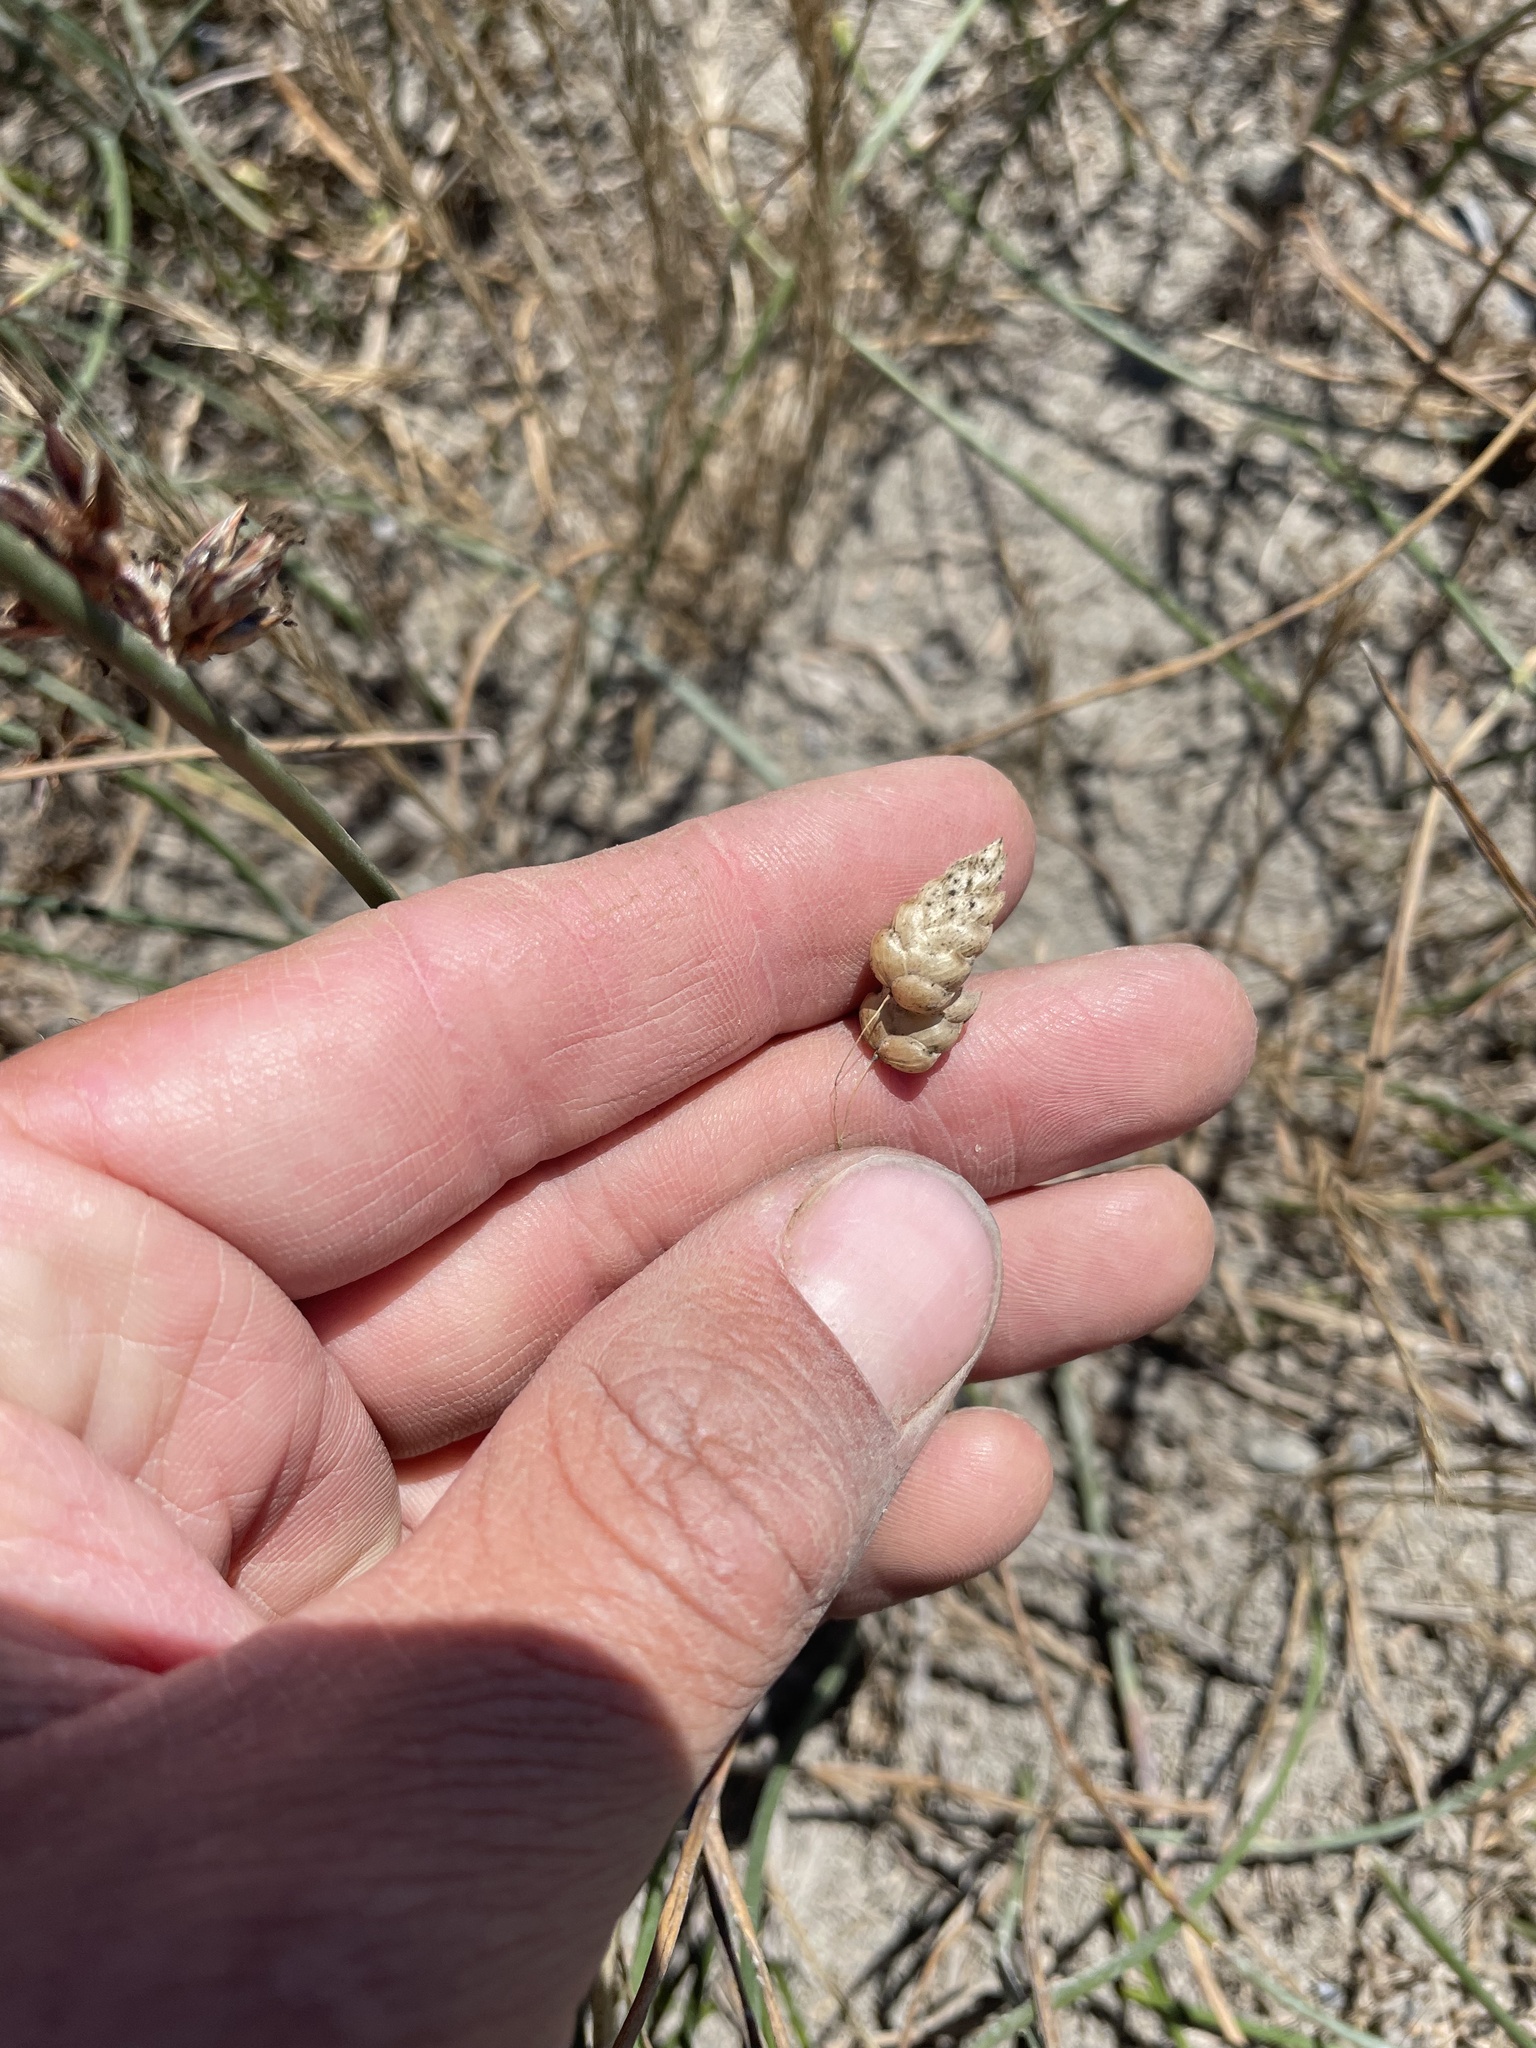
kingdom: Plantae
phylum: Tracheophyta
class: Liliopsida
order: Poales
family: Poaceae
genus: Briza
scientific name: Briza maxima
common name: Big quakinggrass
